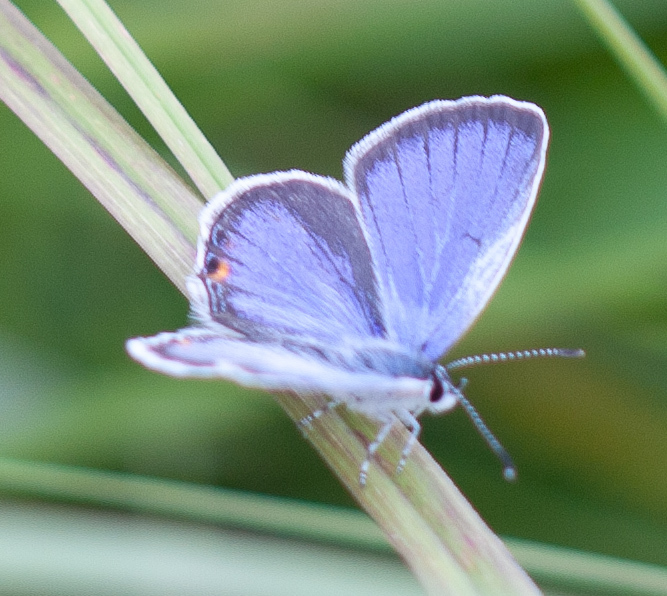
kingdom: Animalia
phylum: Arthropoda
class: Insecta
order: Lepidoptera
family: Lycaenidae
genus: Elkalyce
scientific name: Elkalyce comyntas
